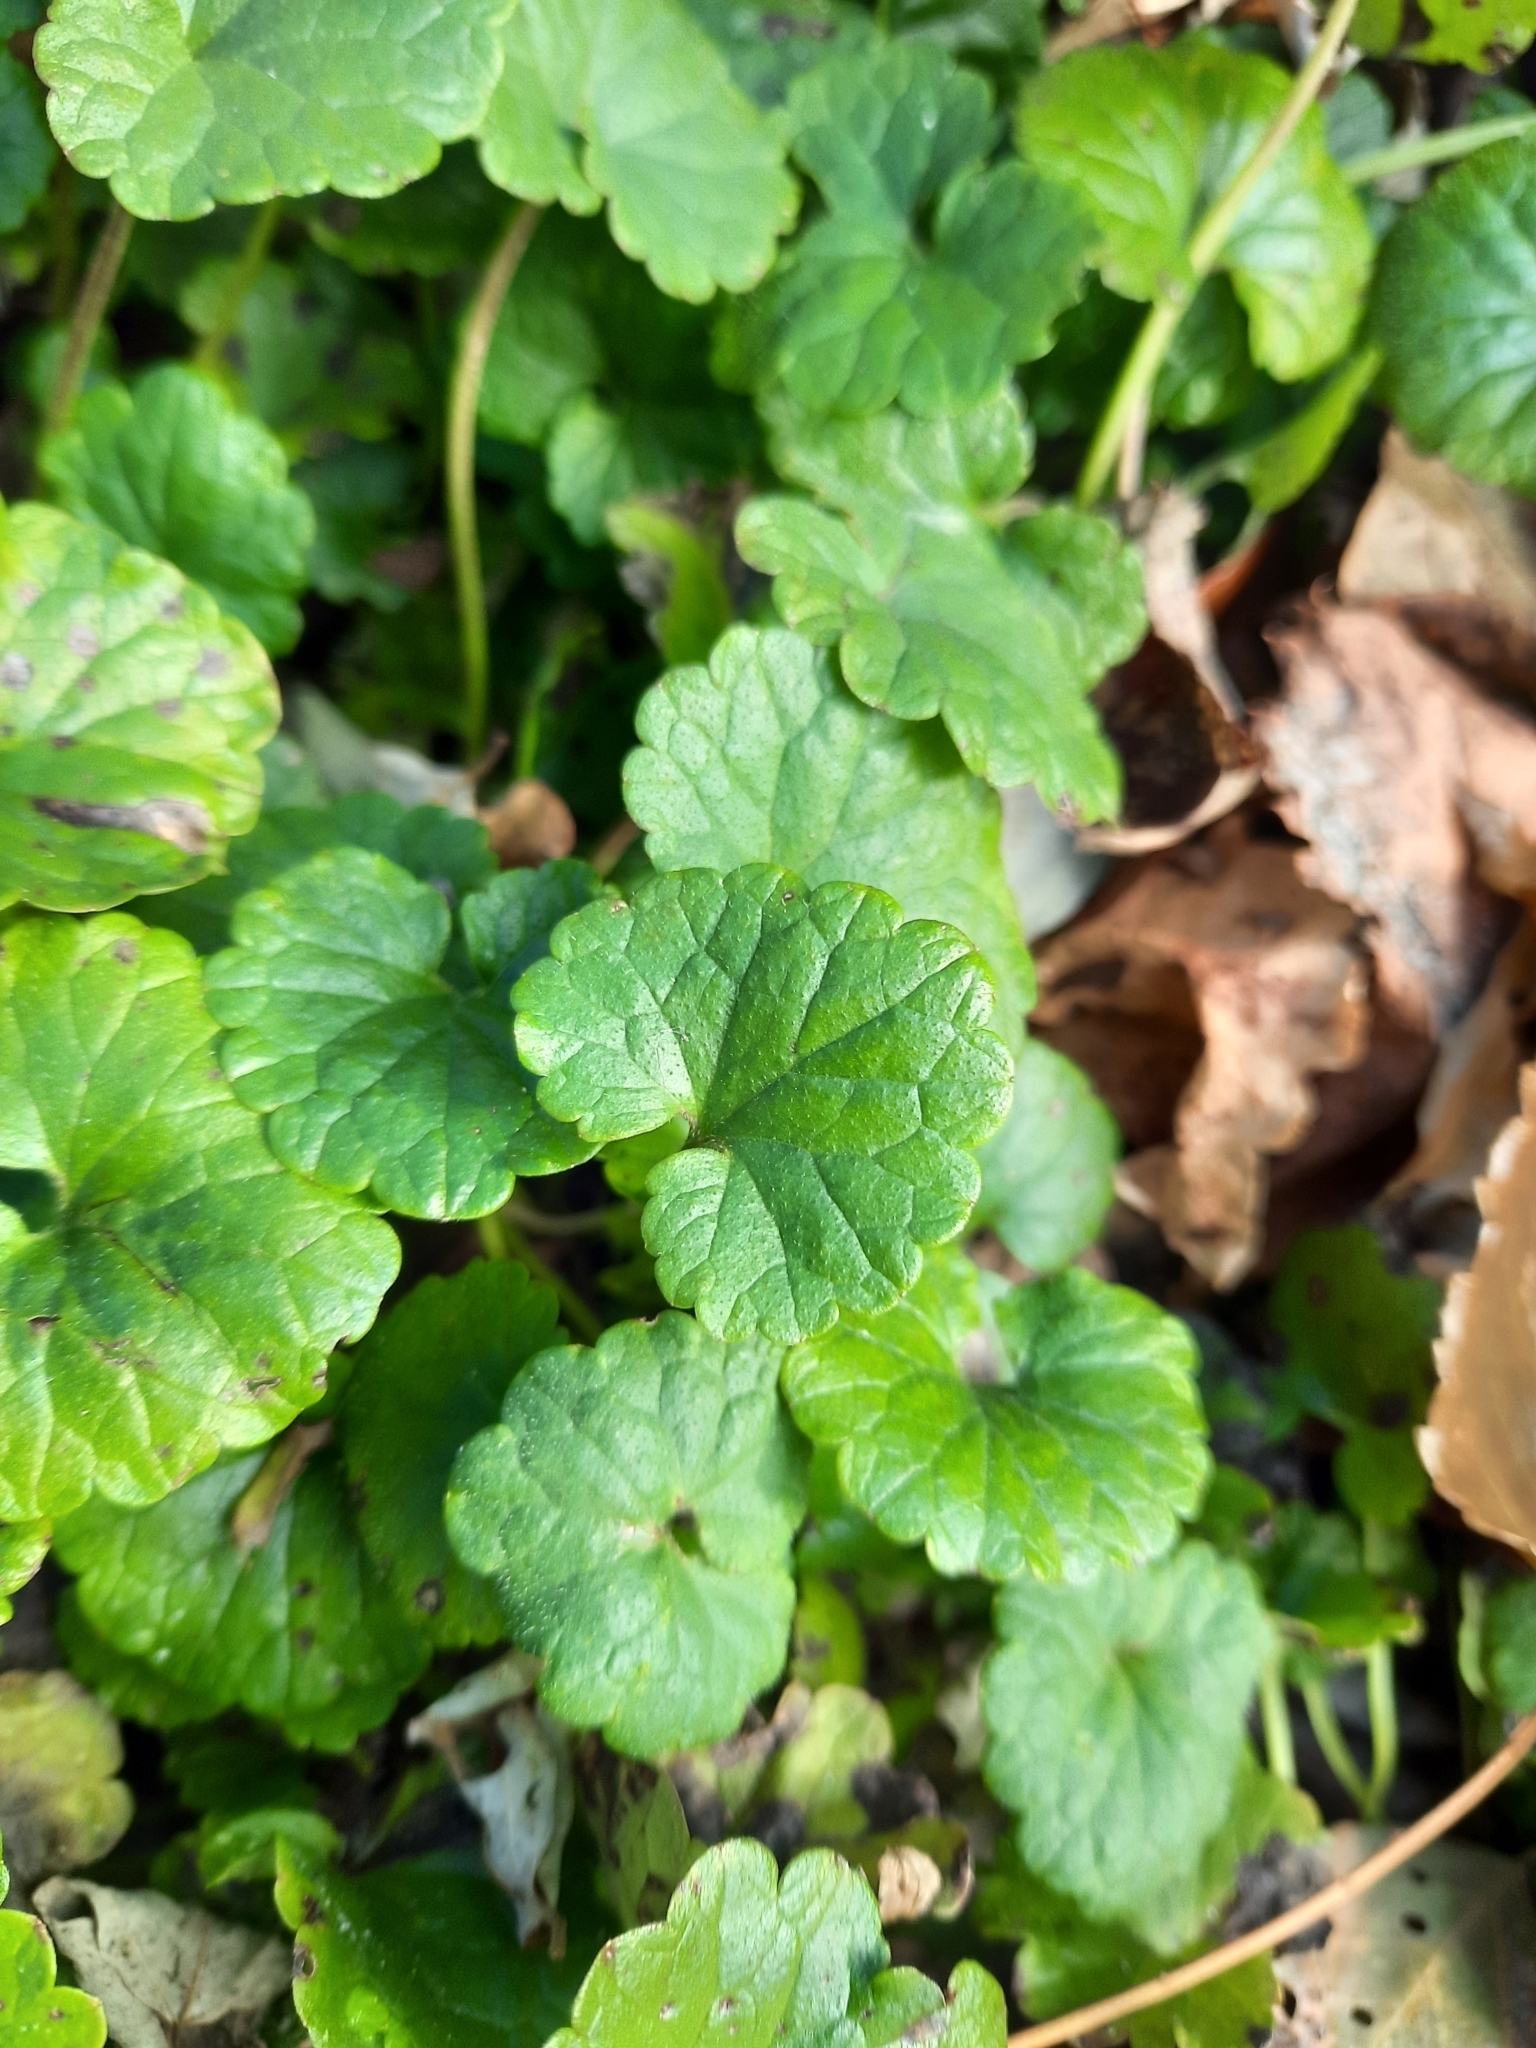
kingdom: Plantae
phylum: Tracheophyta
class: Magnoliopsida
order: Lamiales
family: Lamiaceae
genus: Glechoma
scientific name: Glechoma hederacea
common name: Ground ivy
